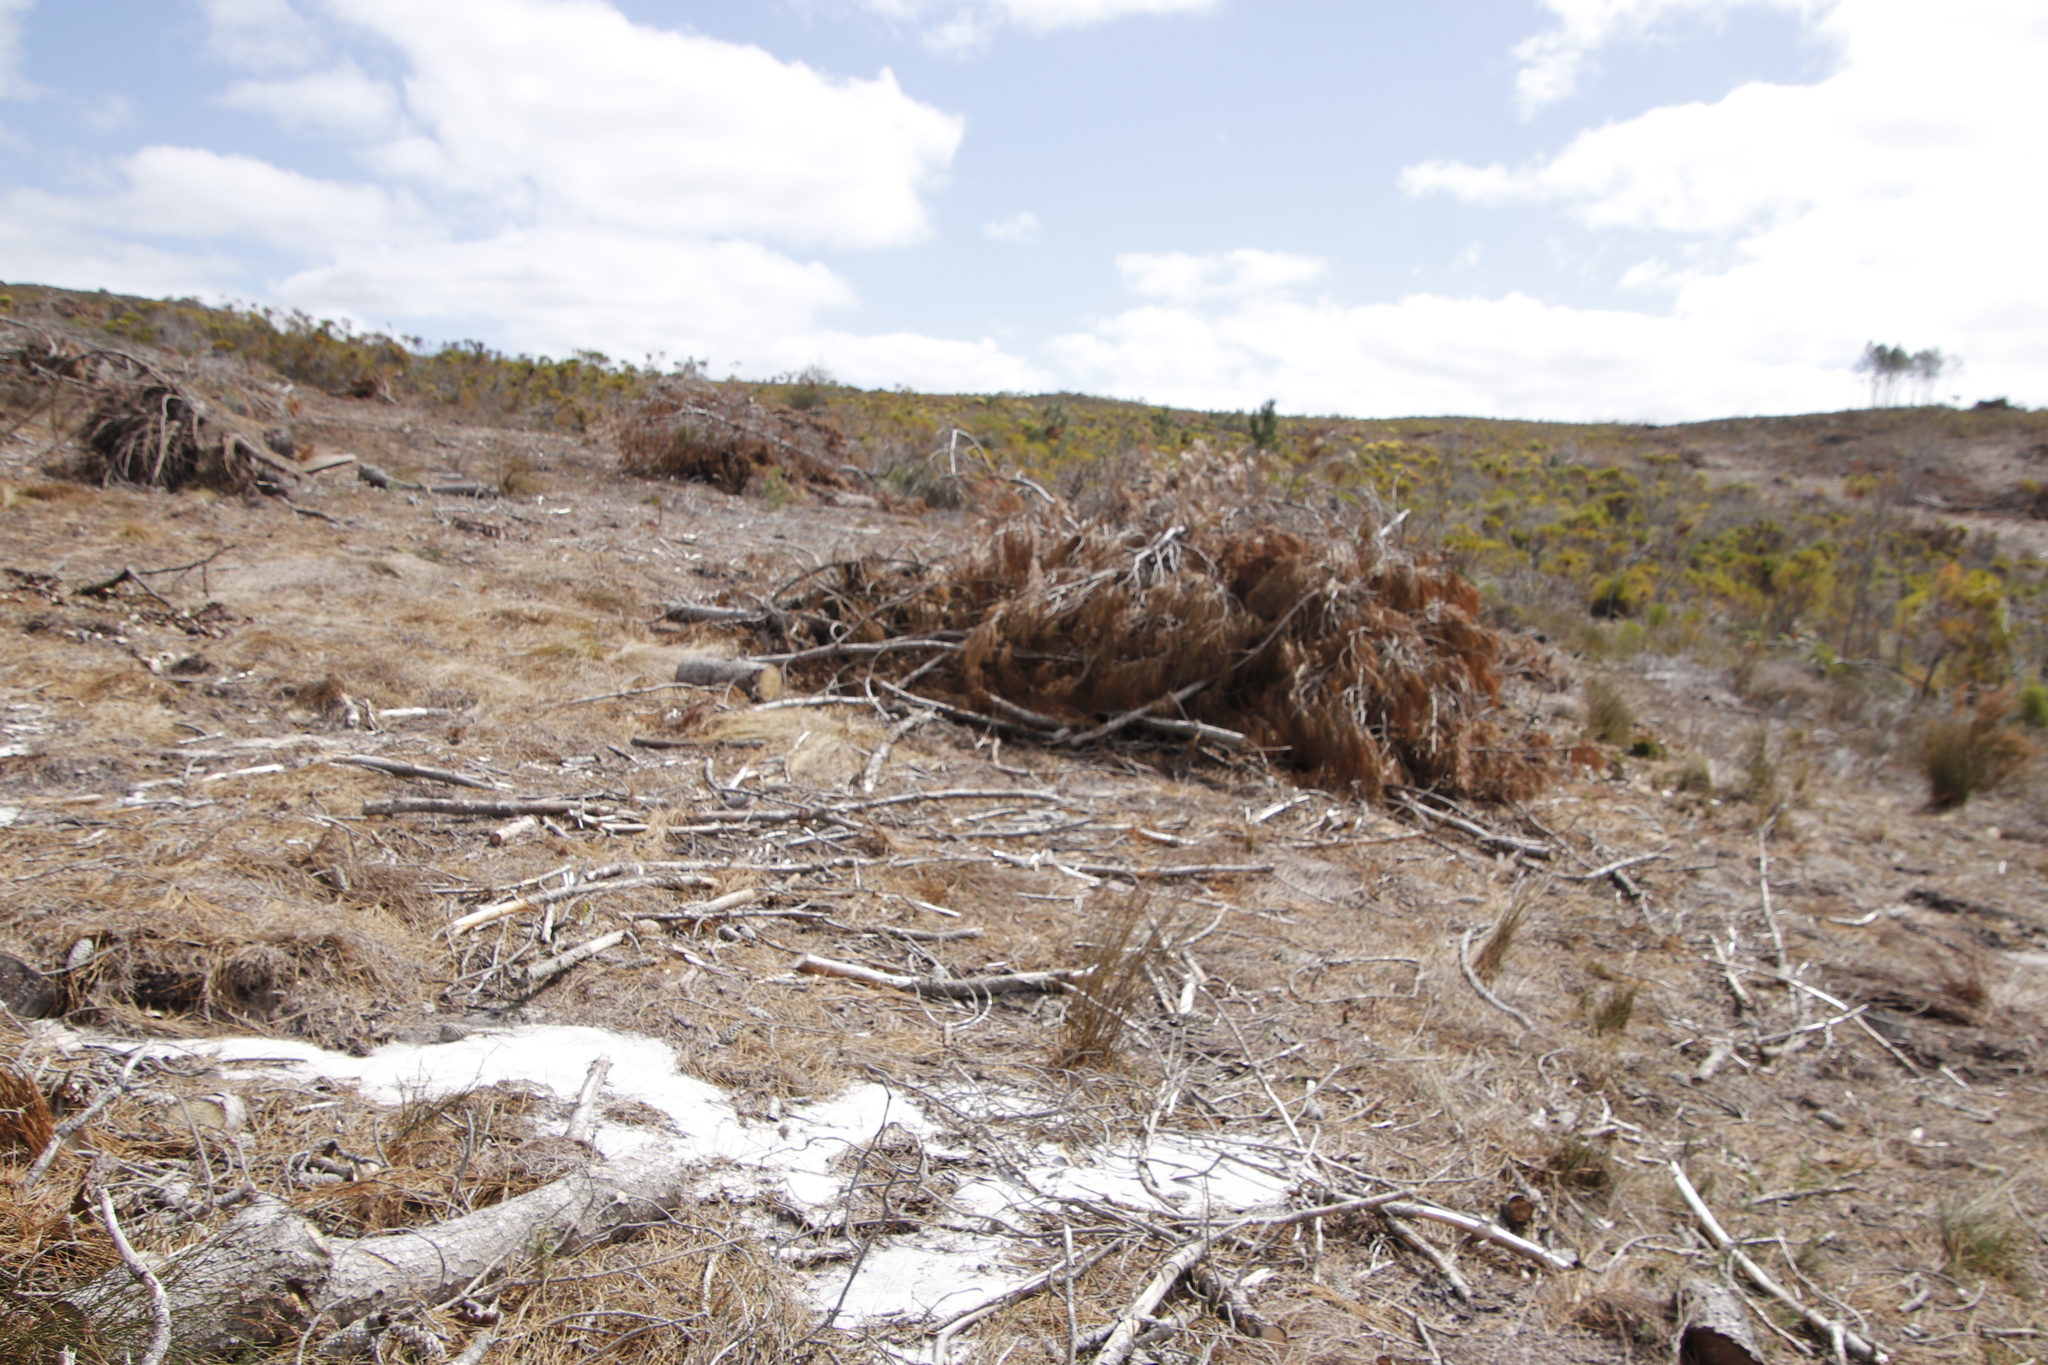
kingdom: Plantae
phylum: Tracheophyta
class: Pinopsida
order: Pinales
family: Pinaceae
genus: Pinus
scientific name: Pinus pinaster
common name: Maritime pine
